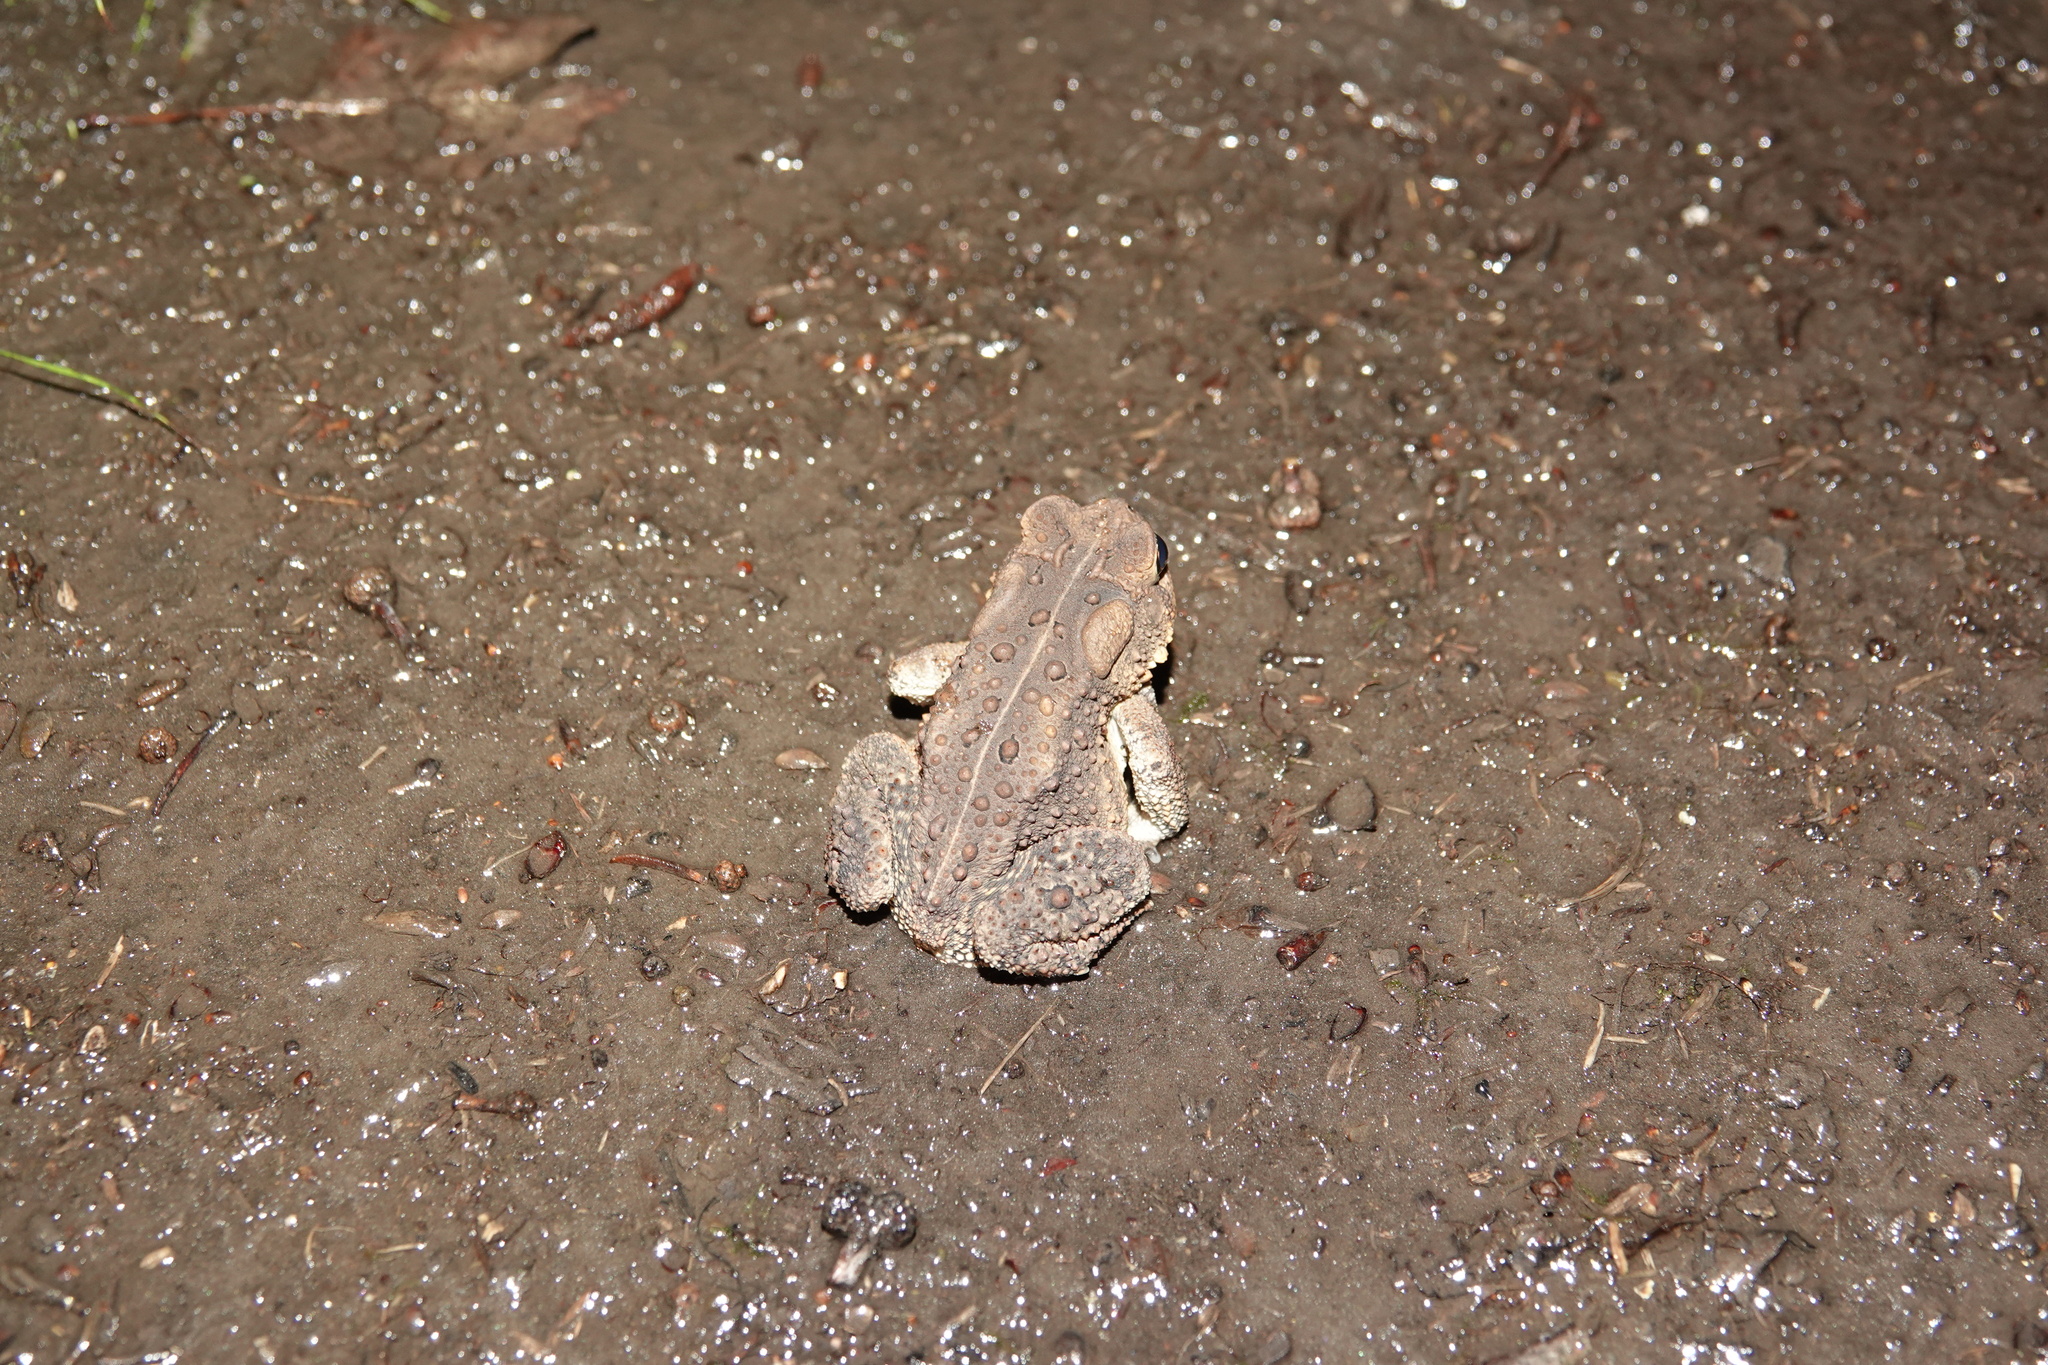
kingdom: Animalia
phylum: Chordata
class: Amphibia
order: Anura
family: Bufonidae
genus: Anaxyrus
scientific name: Anaxyrus americanus
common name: American toad
